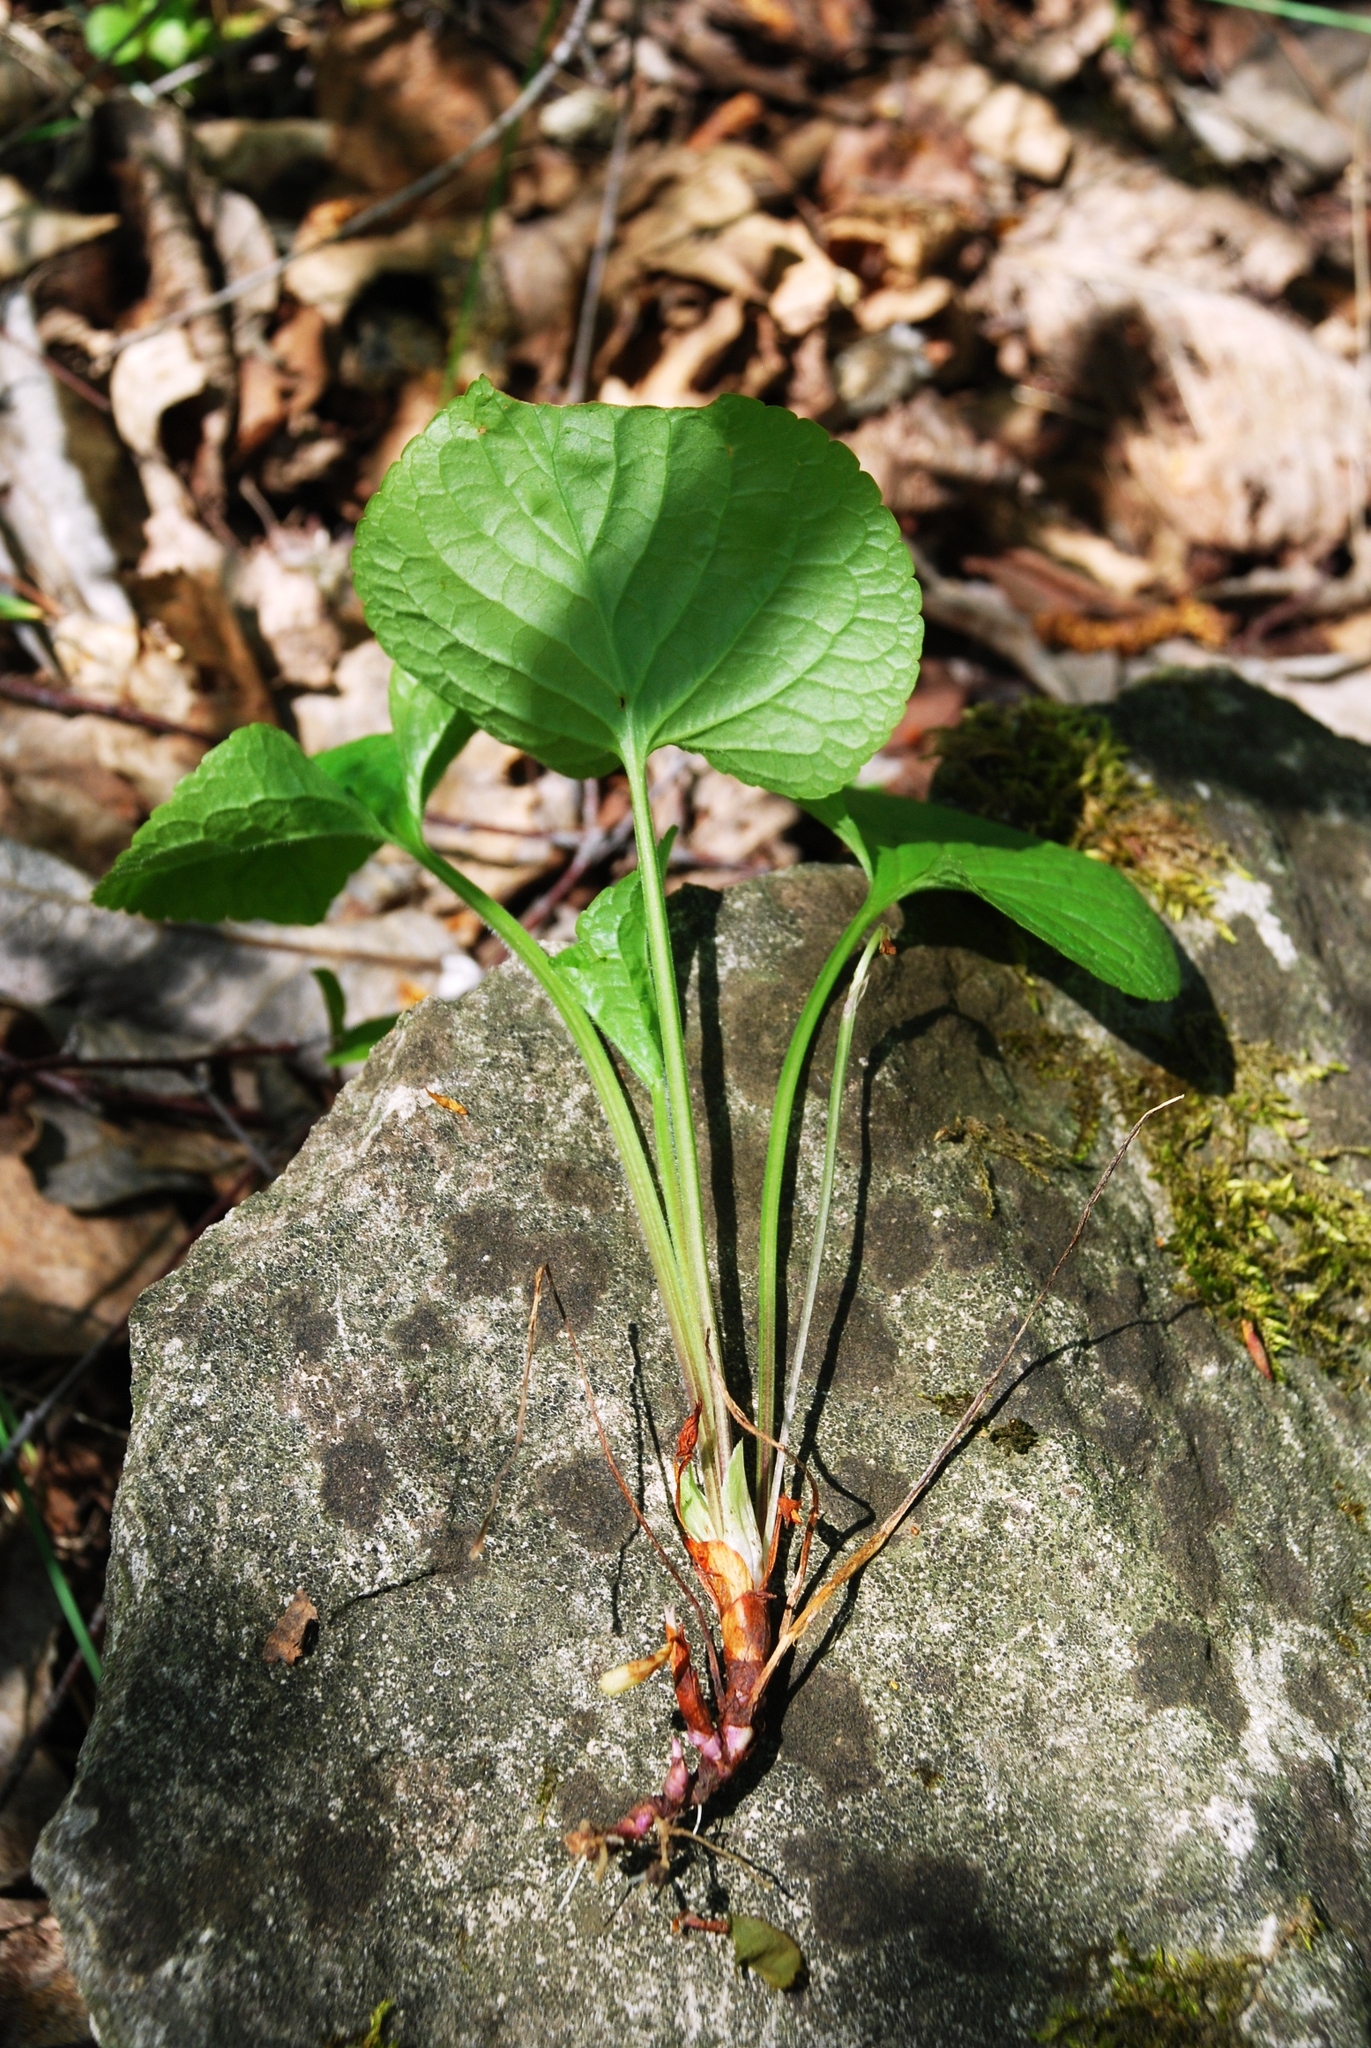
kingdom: Plantae
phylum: Tracheophyta
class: Magnoliopsida
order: Malpighiales
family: Violaceae
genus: Viola
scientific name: Viola mirabilis
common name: Wonder violet
